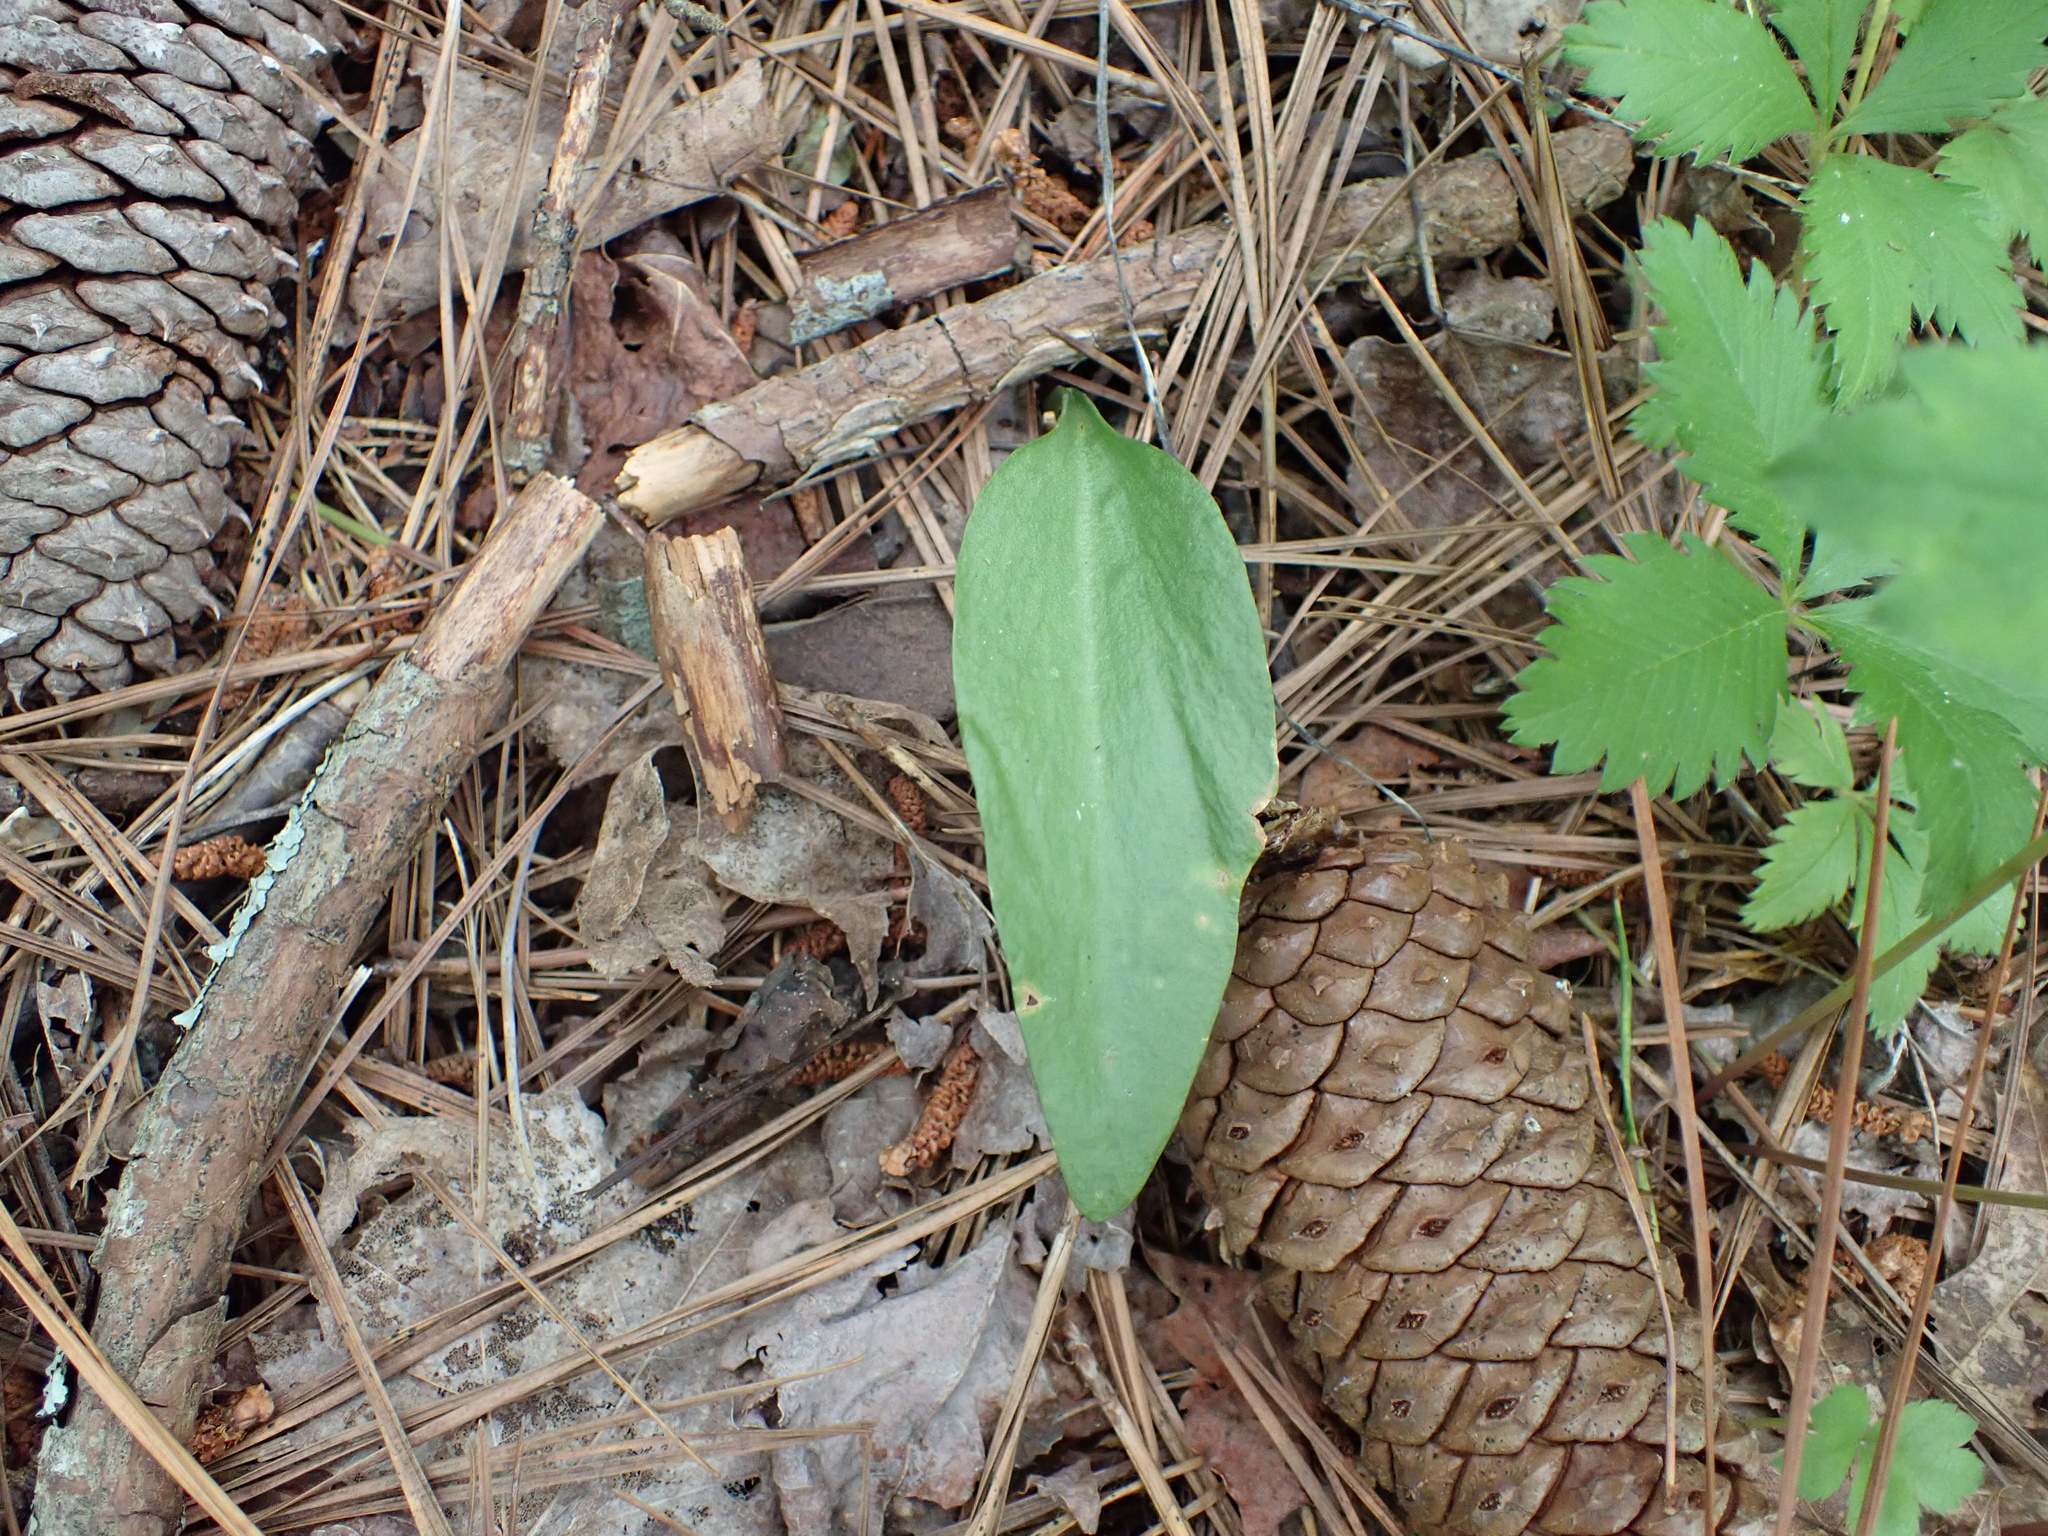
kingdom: Plantae
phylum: Tracheophyta
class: Polypodiopsida
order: Ophioglossales
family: Ophioglossaceae
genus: Ophioglossum
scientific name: Ophioglossum vulgatum
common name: Adder's-tongue
